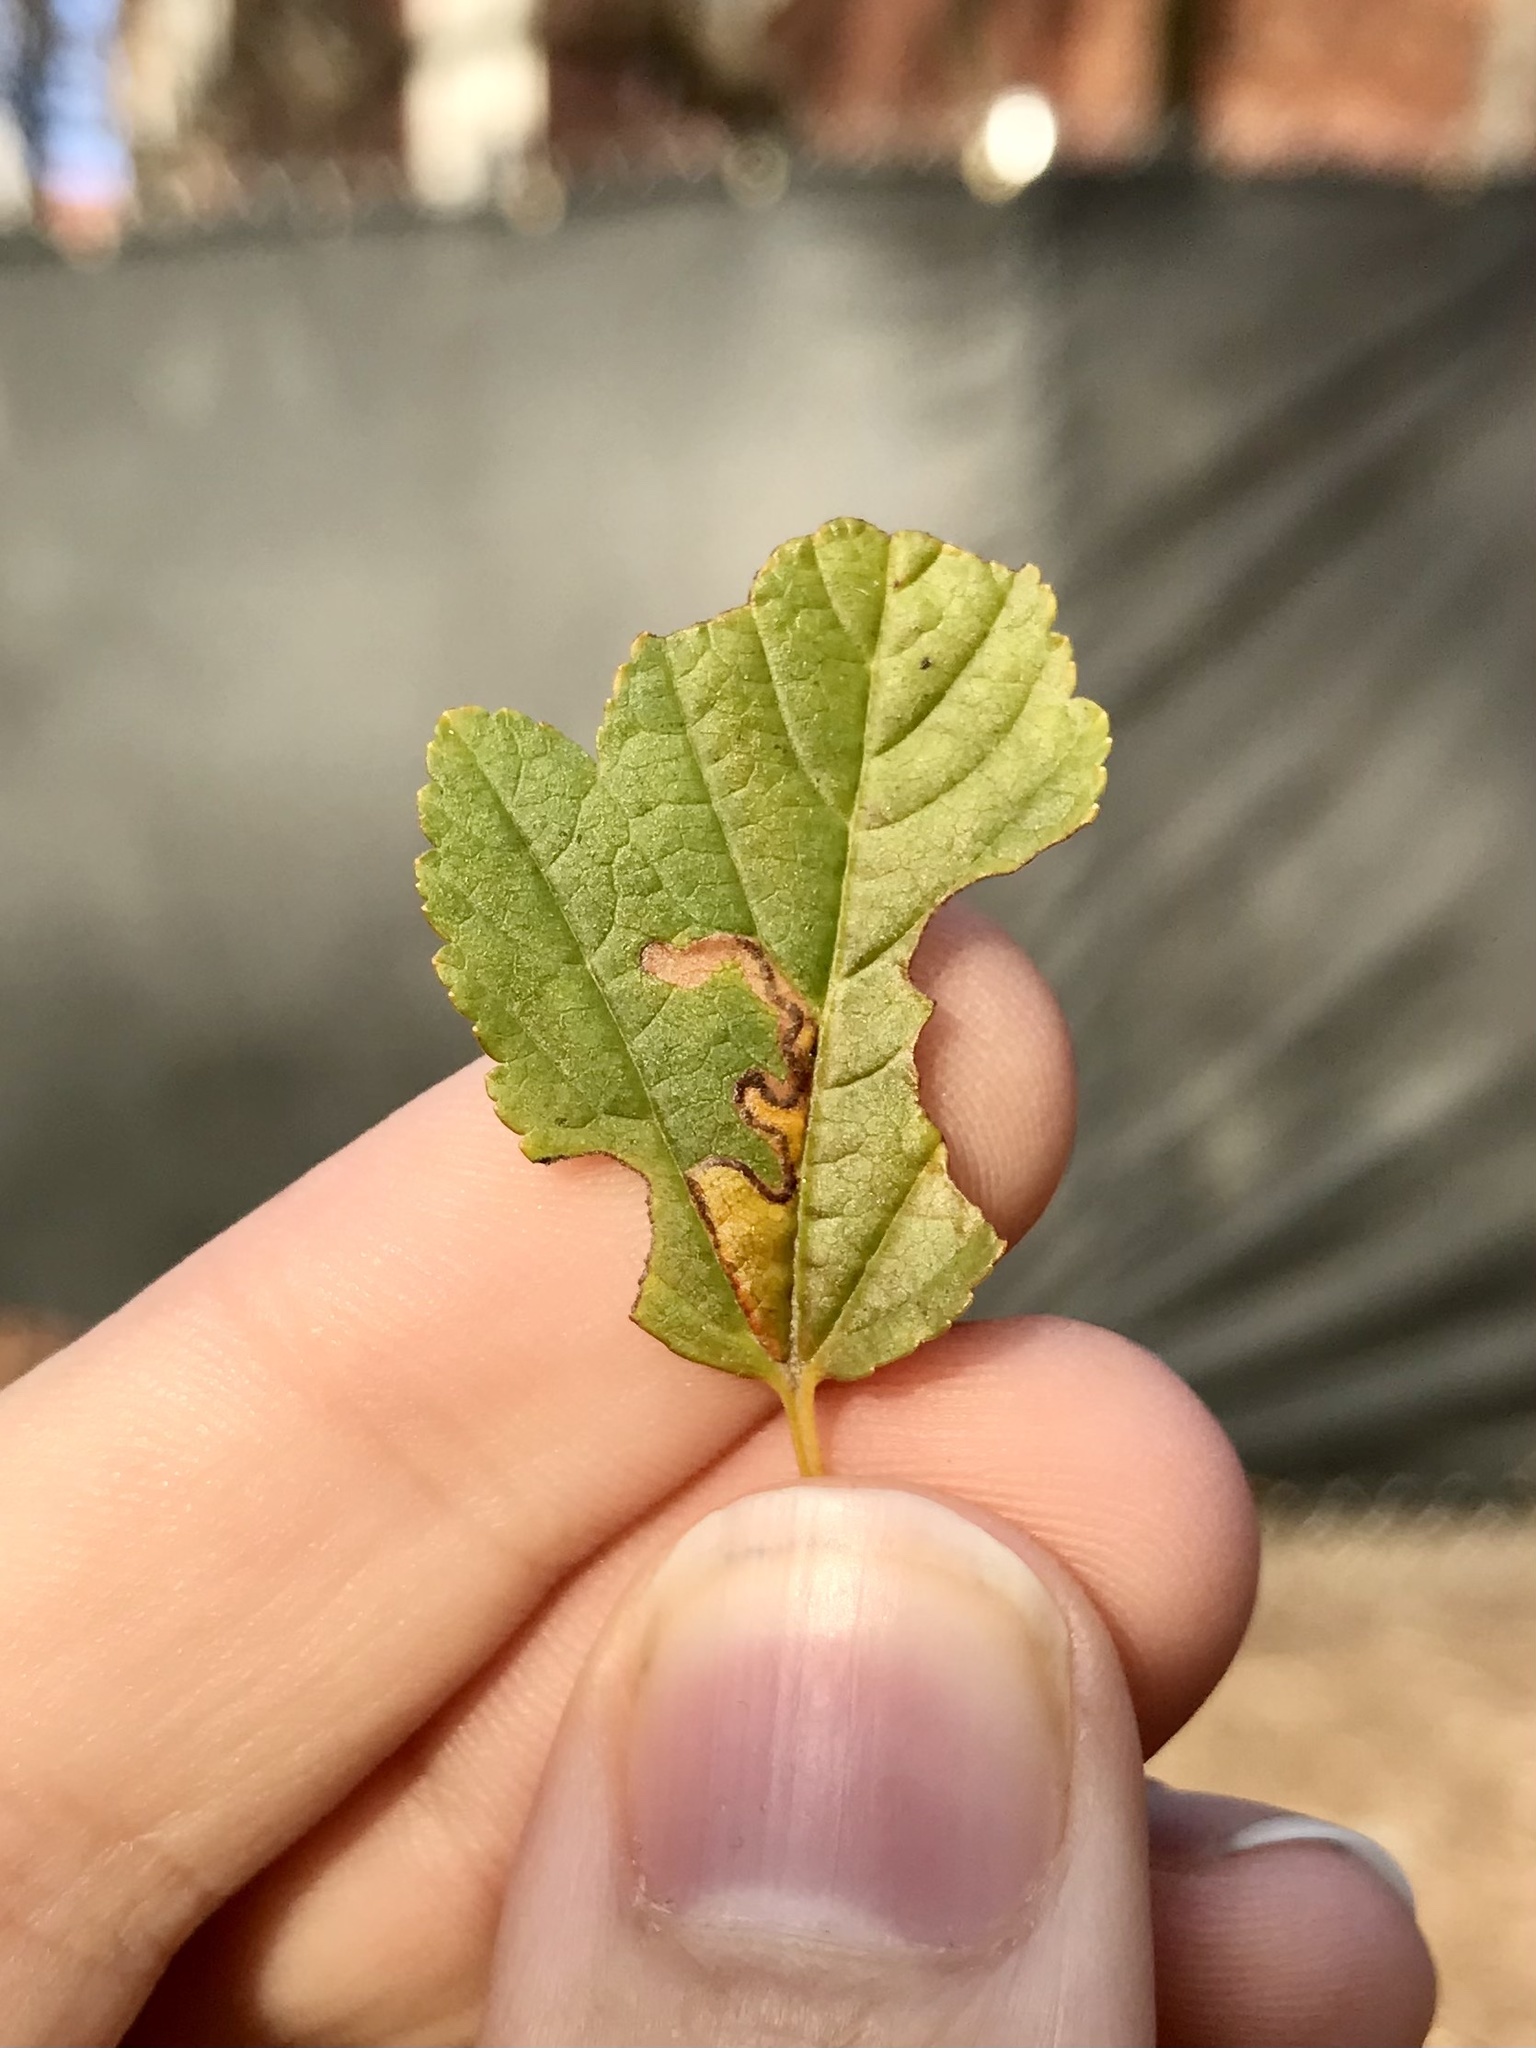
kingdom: Animalia
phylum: Arthropoda
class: Insecta
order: Lepidoptera
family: Nepticulidae
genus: Stigmella
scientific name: Stigmella corylifoliella
